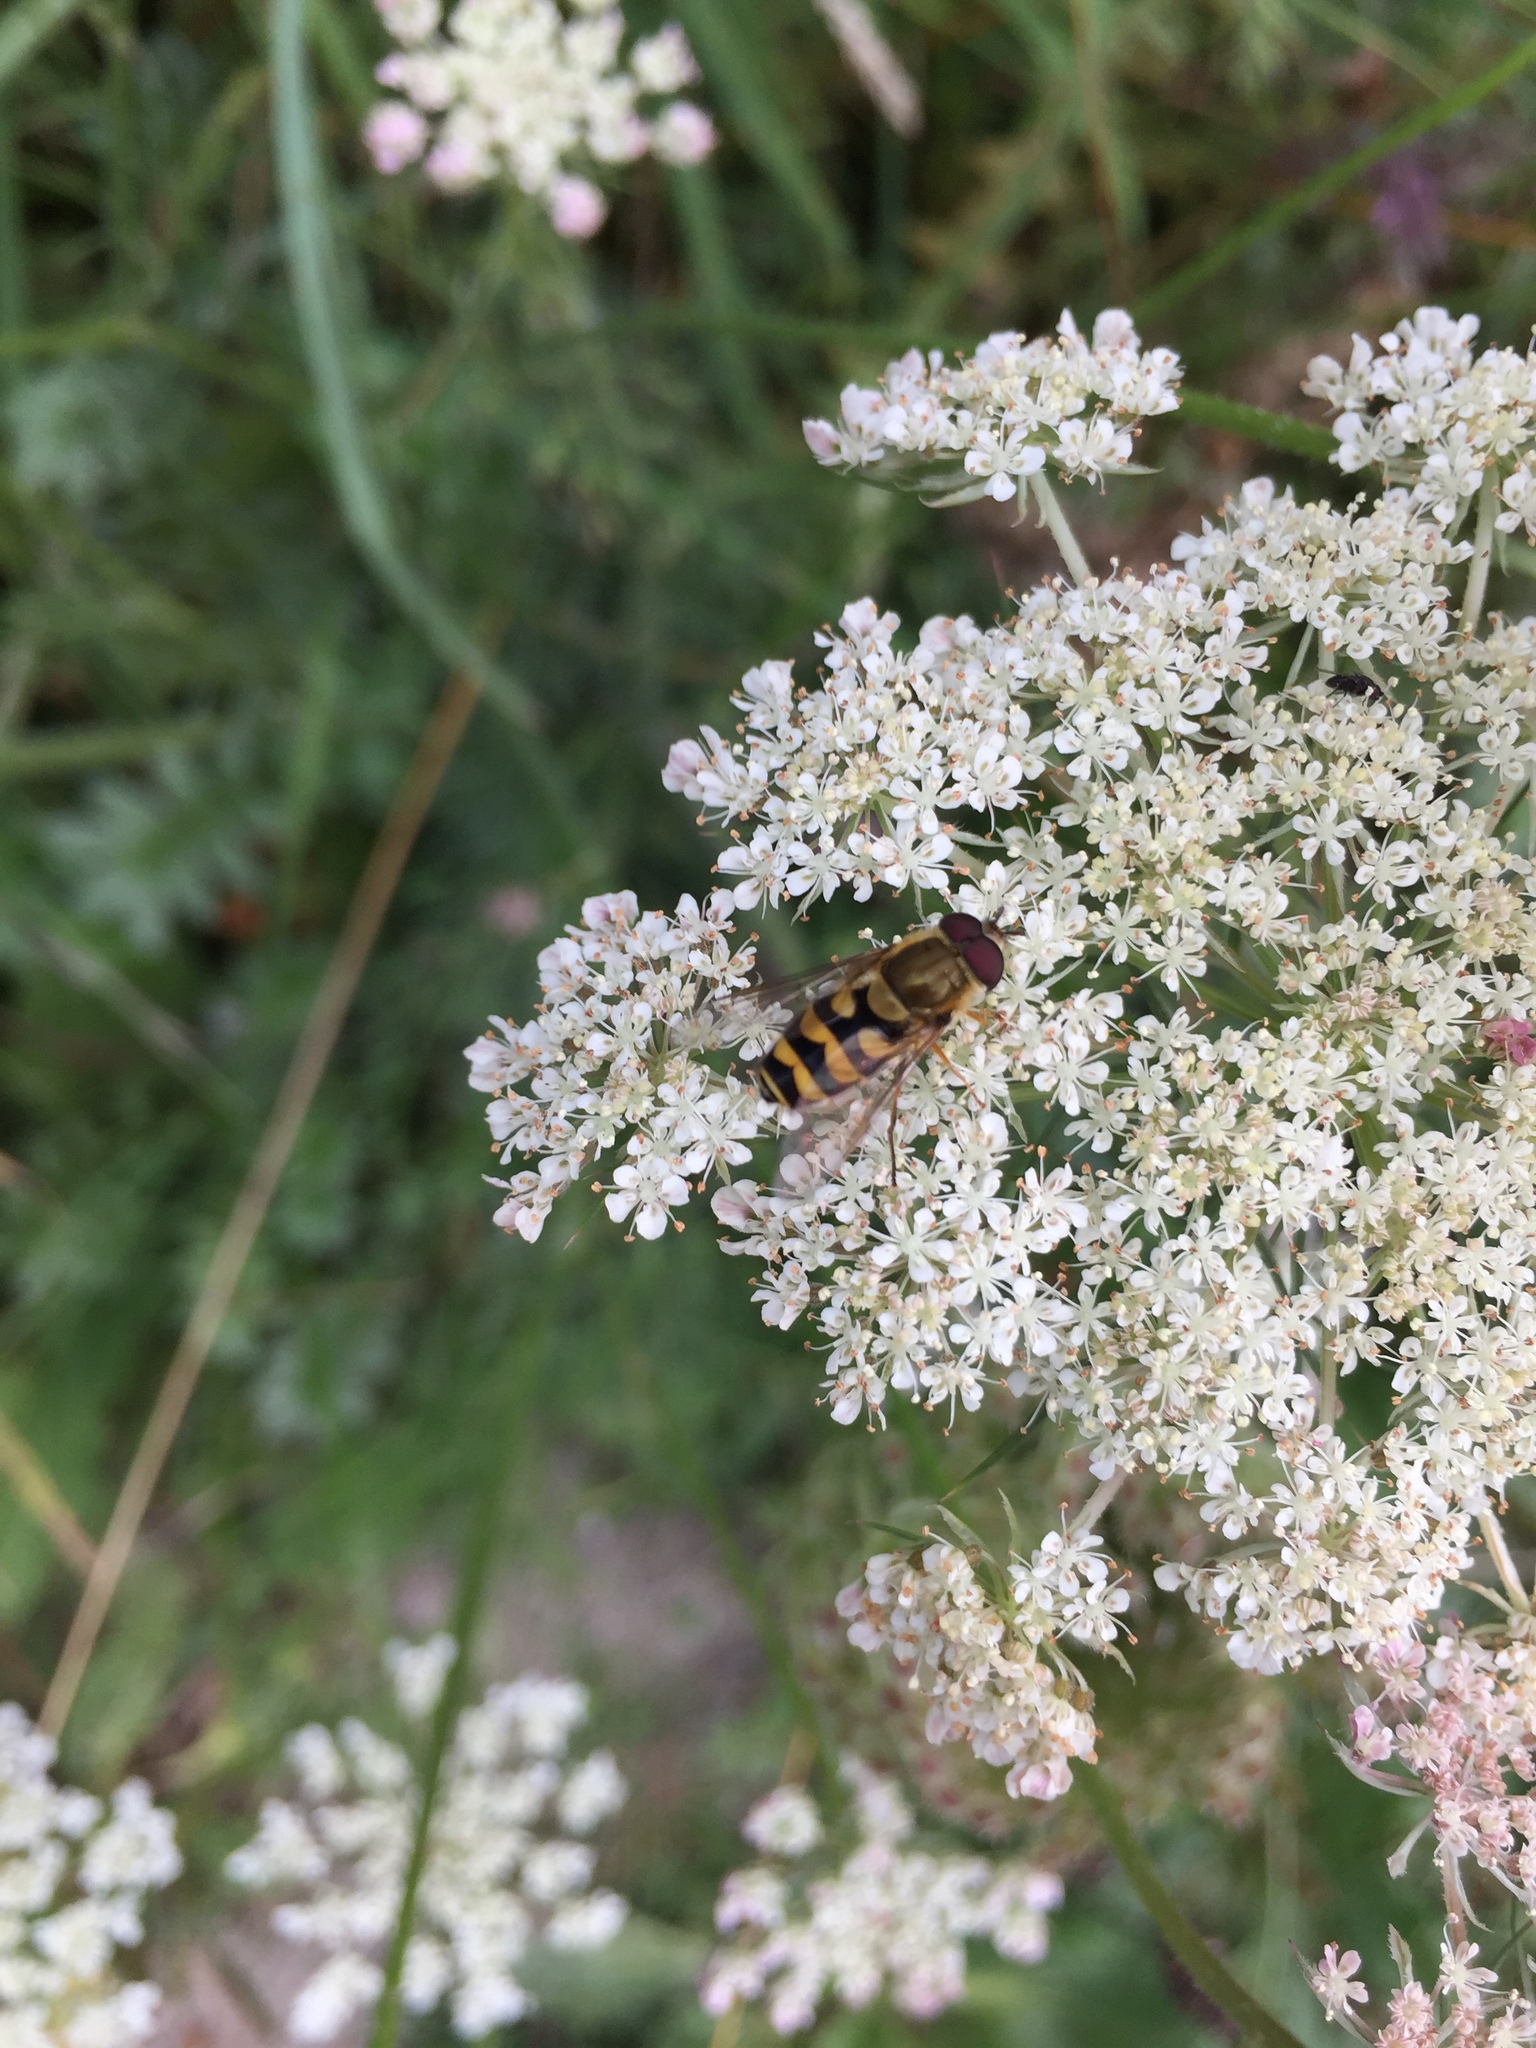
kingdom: Animalia
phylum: Arthropoda
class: Insecta
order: Diptera
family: Syrphidae
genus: Syrphus
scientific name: Syrphus
